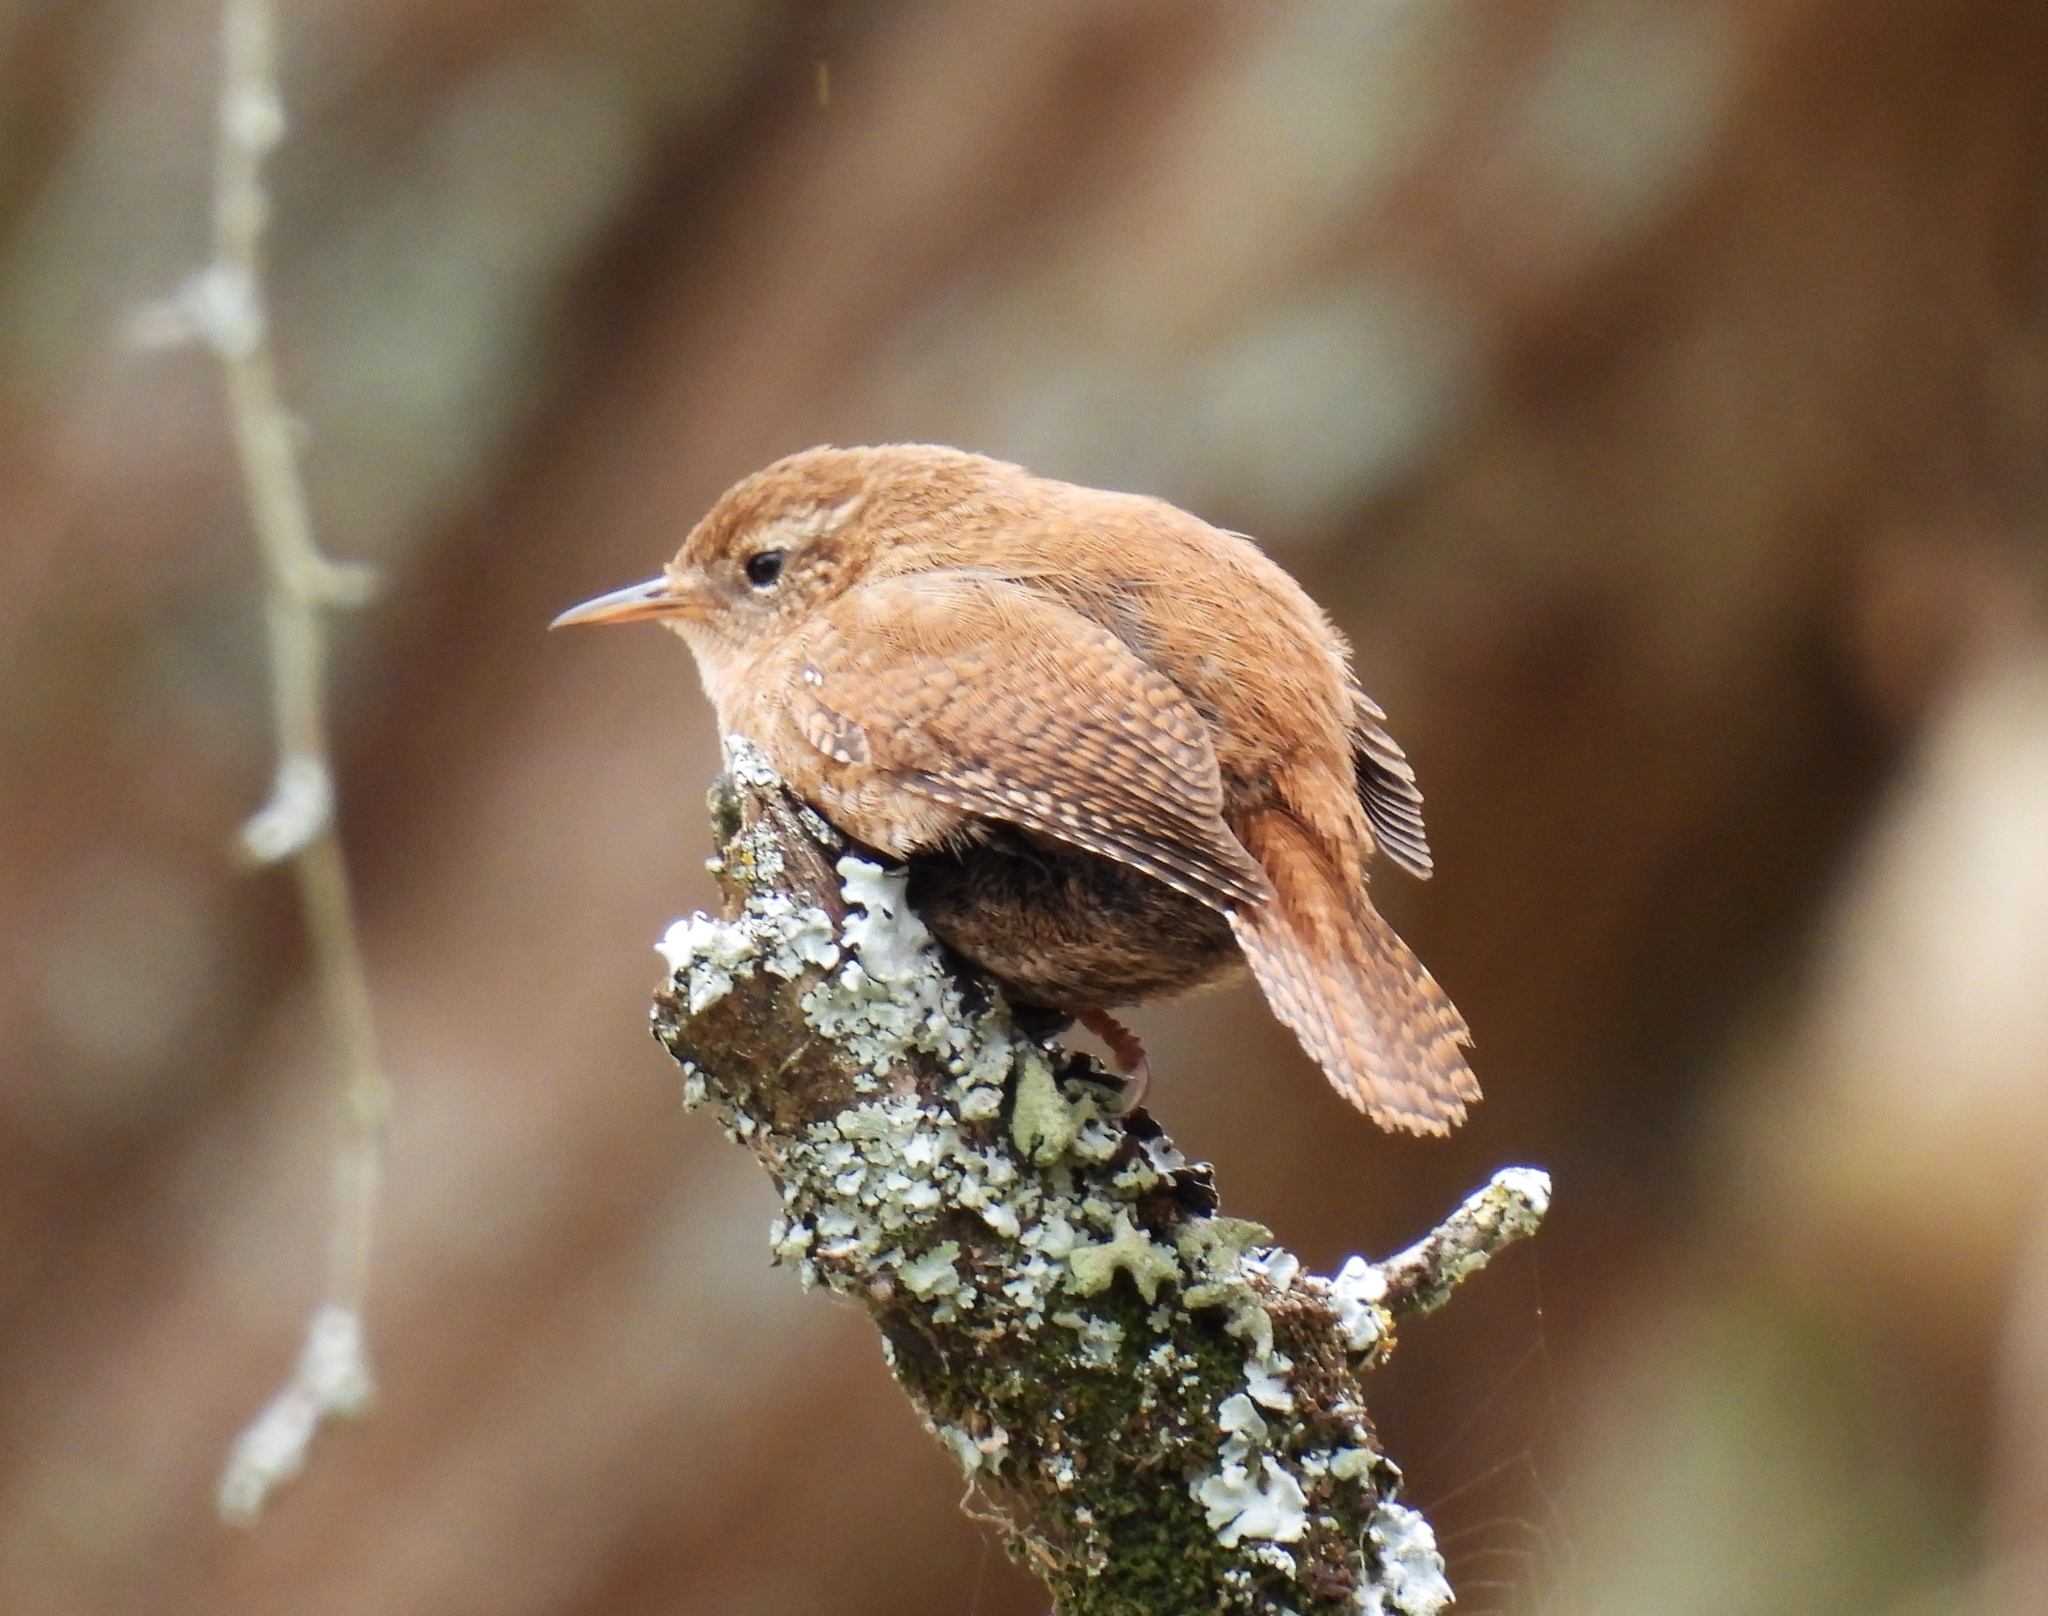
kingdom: Animalia
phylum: Chordata
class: Aves
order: Passeriformes
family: Troglodytidae
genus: Troglodytes
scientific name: Troglodytes troglodytes
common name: Eurasian wren
